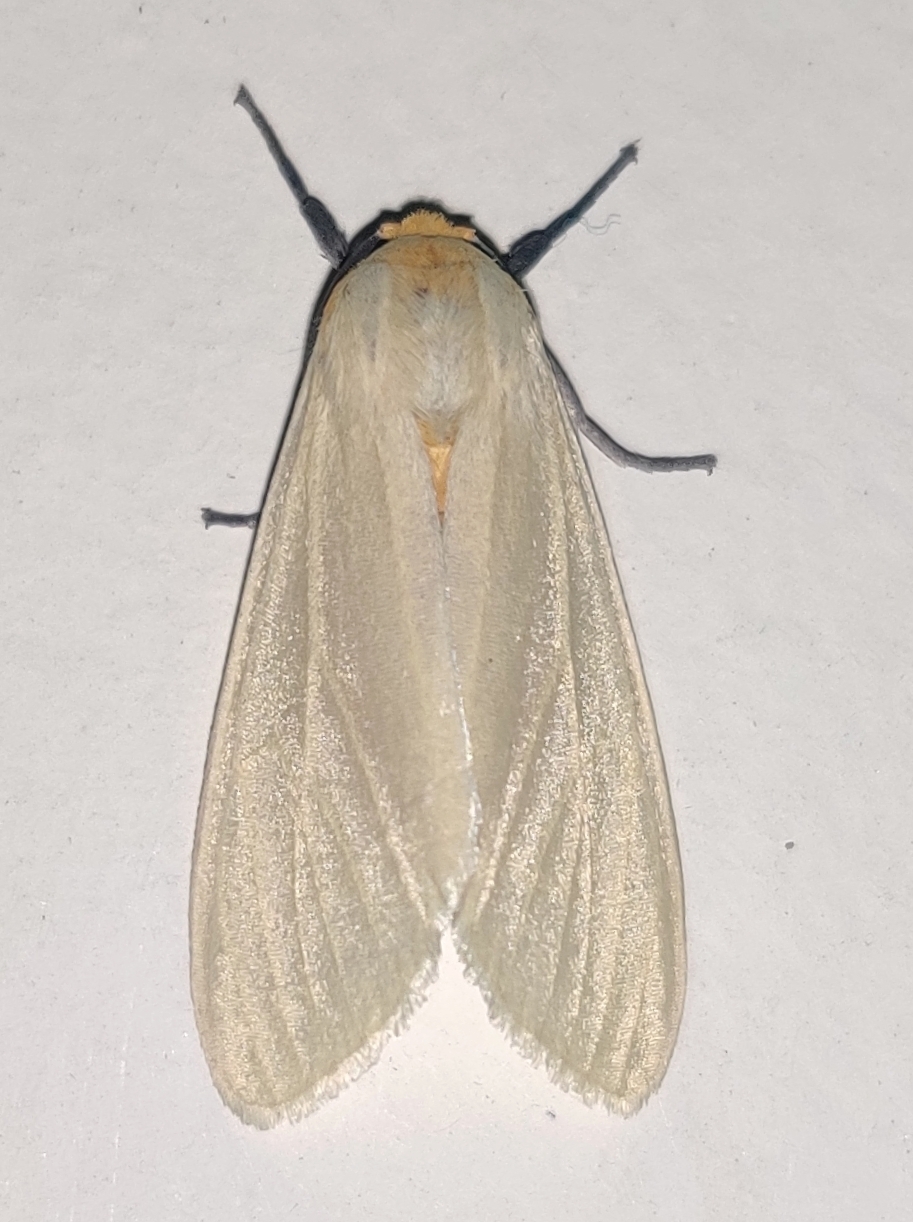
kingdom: Animalia
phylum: Arthropoda
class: Insecta
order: Lepidoptera
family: Erebidae
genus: Pareuchaetes
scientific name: Pareuchaetes pseudoinsulata
